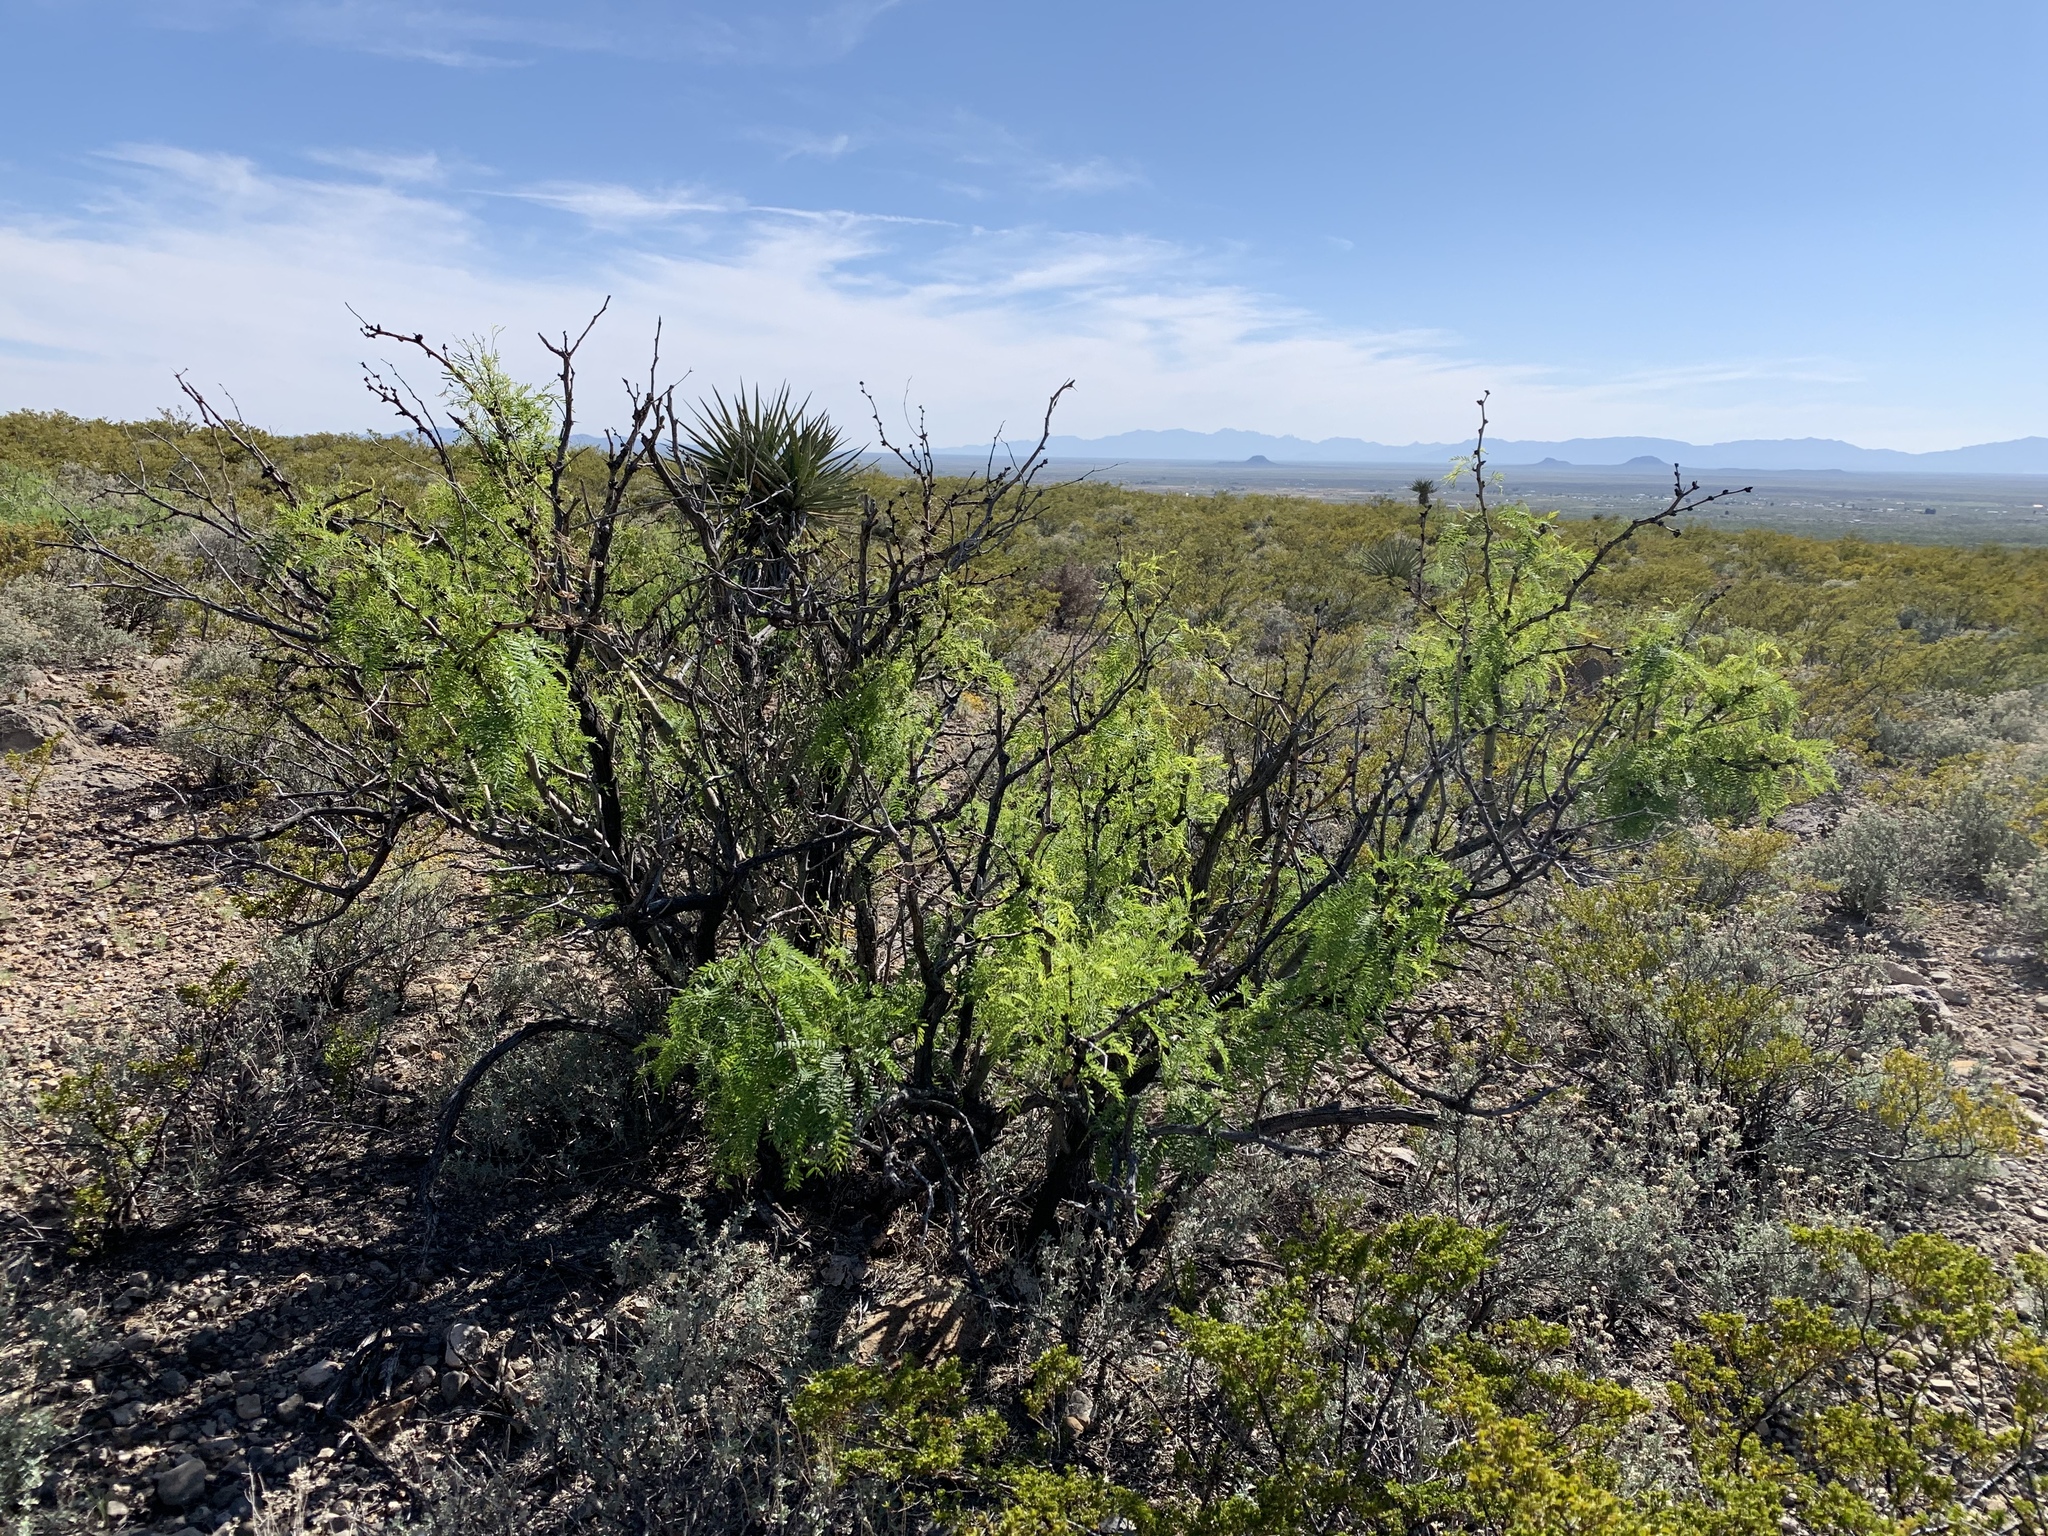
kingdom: Plantae
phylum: Tracheophyta
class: Magnoliopsida
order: Fabales
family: Fabaceae
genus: Prosopis
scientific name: Prosopis glandulosa
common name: Honey mesquite
